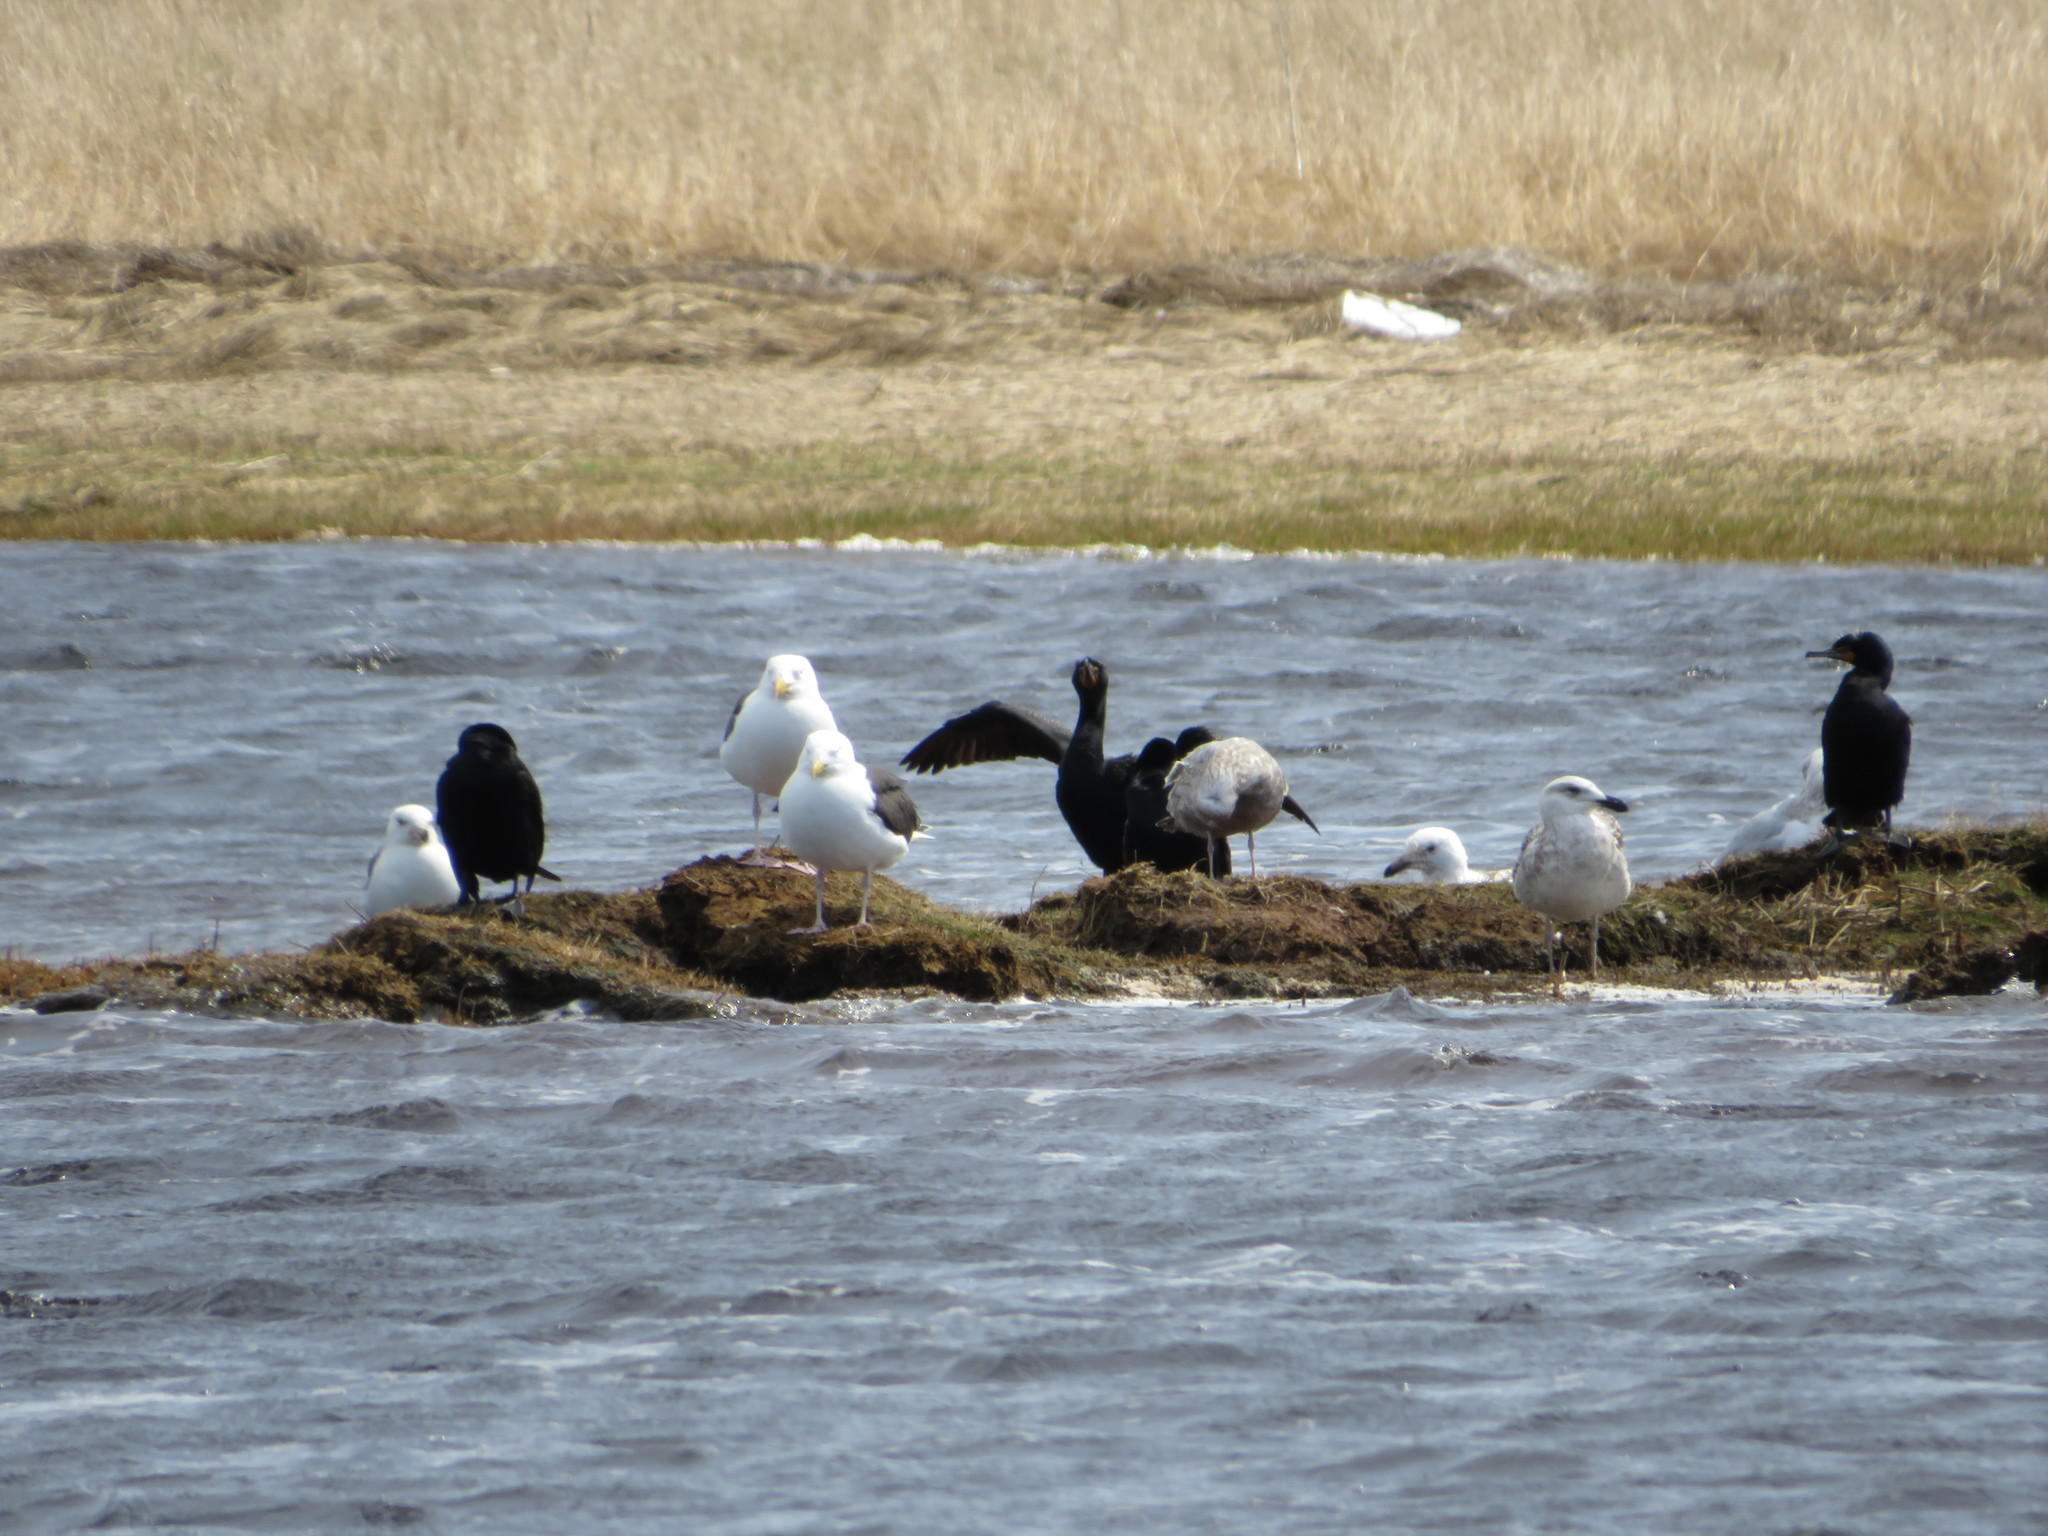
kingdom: Animalia
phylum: Chordata
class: Aves
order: Suliformes
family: Phalacrocoracidae
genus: Phalacrocorax
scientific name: Phalacrocorax auritus
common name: Double-crested cormorant
